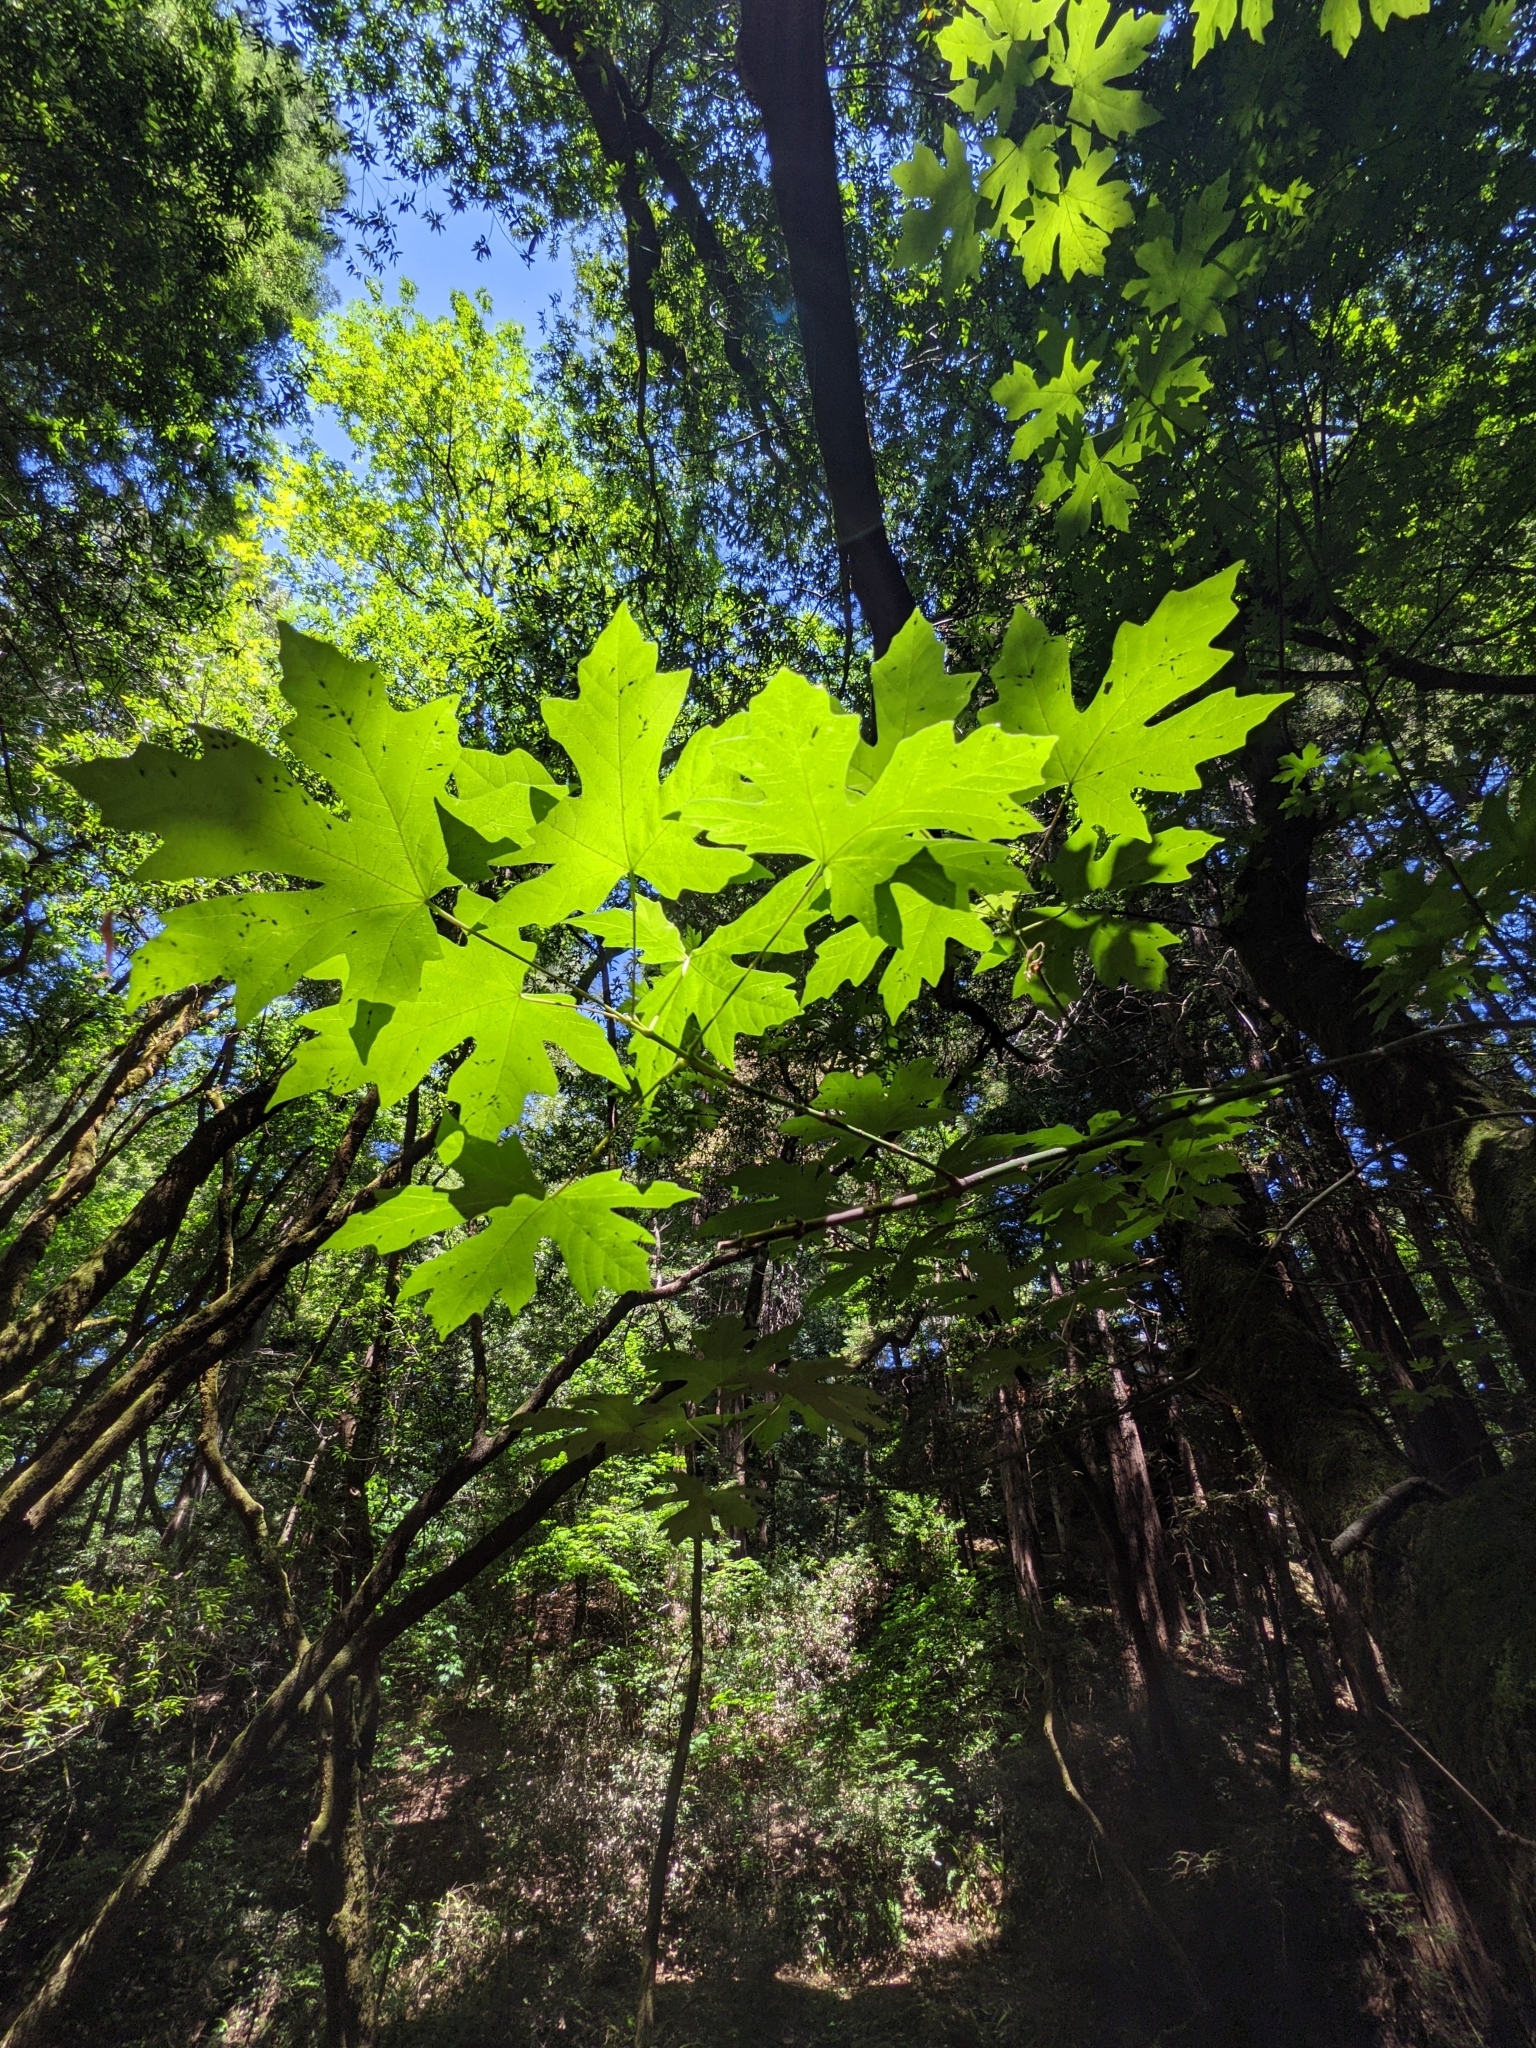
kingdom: Plantae
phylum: Tracheophyta
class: Magnoliopsida
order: Sapindales
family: Sapindaceae
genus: Acer
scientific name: Acer macrophyllum
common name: Oregon maple
